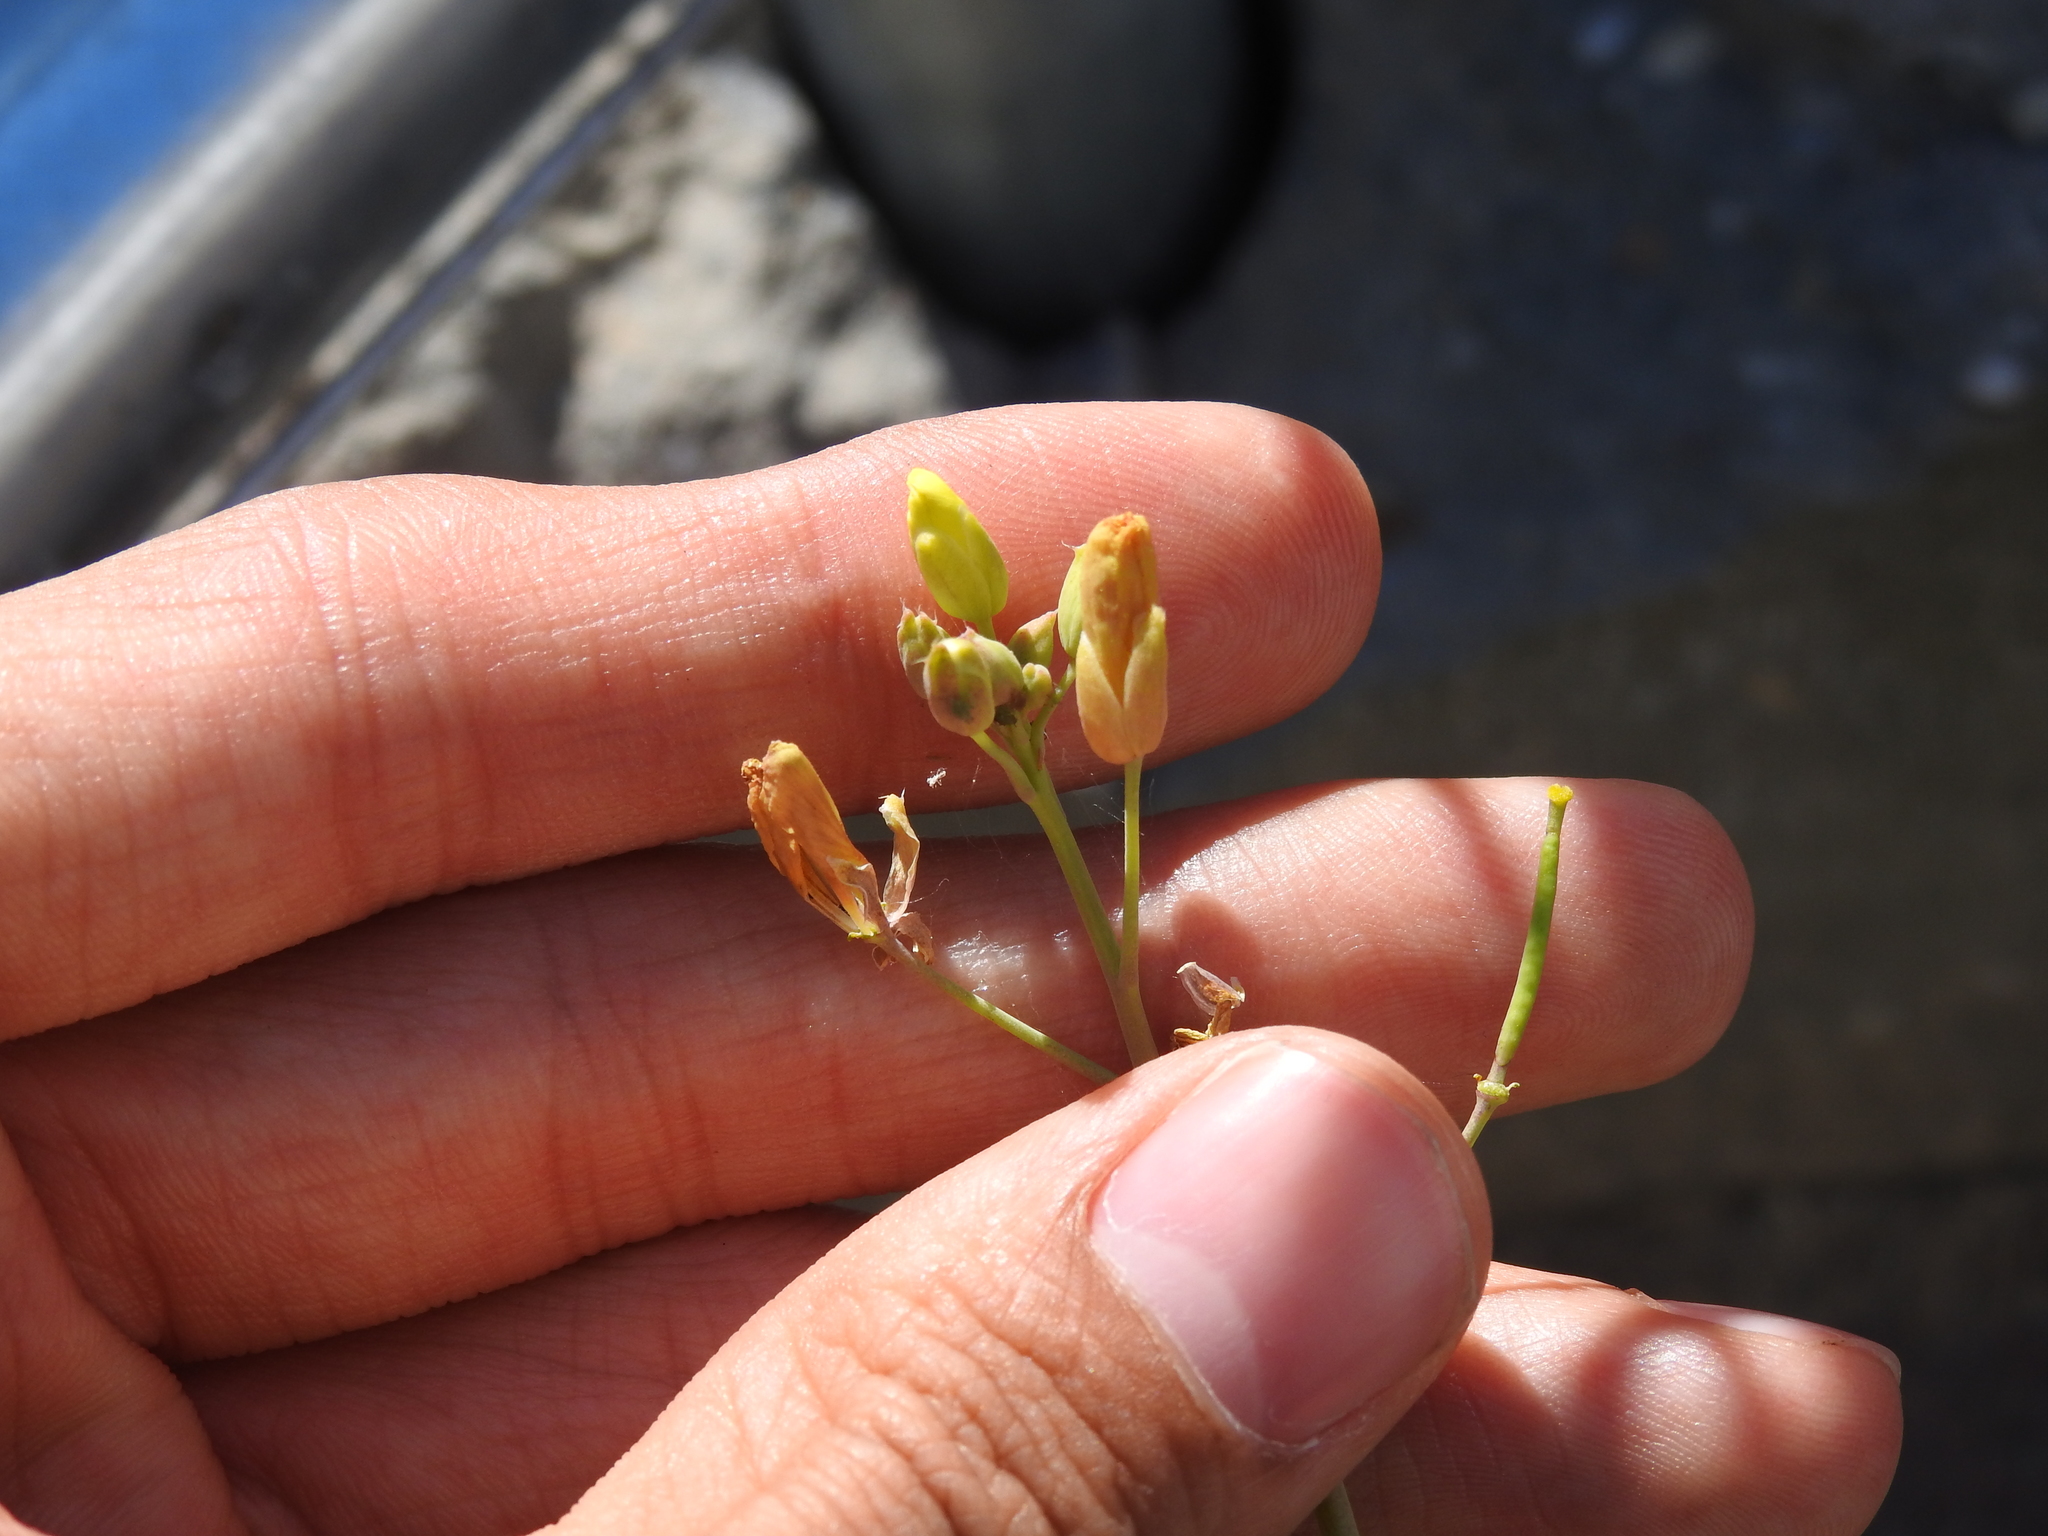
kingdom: Plantae
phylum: Tracheophyta
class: Magnoliopsida
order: Brassicales
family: Brassicaceae
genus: Diplotaxis
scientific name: Diplotaxis tenuifolia
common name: Perennial wall-rocket
